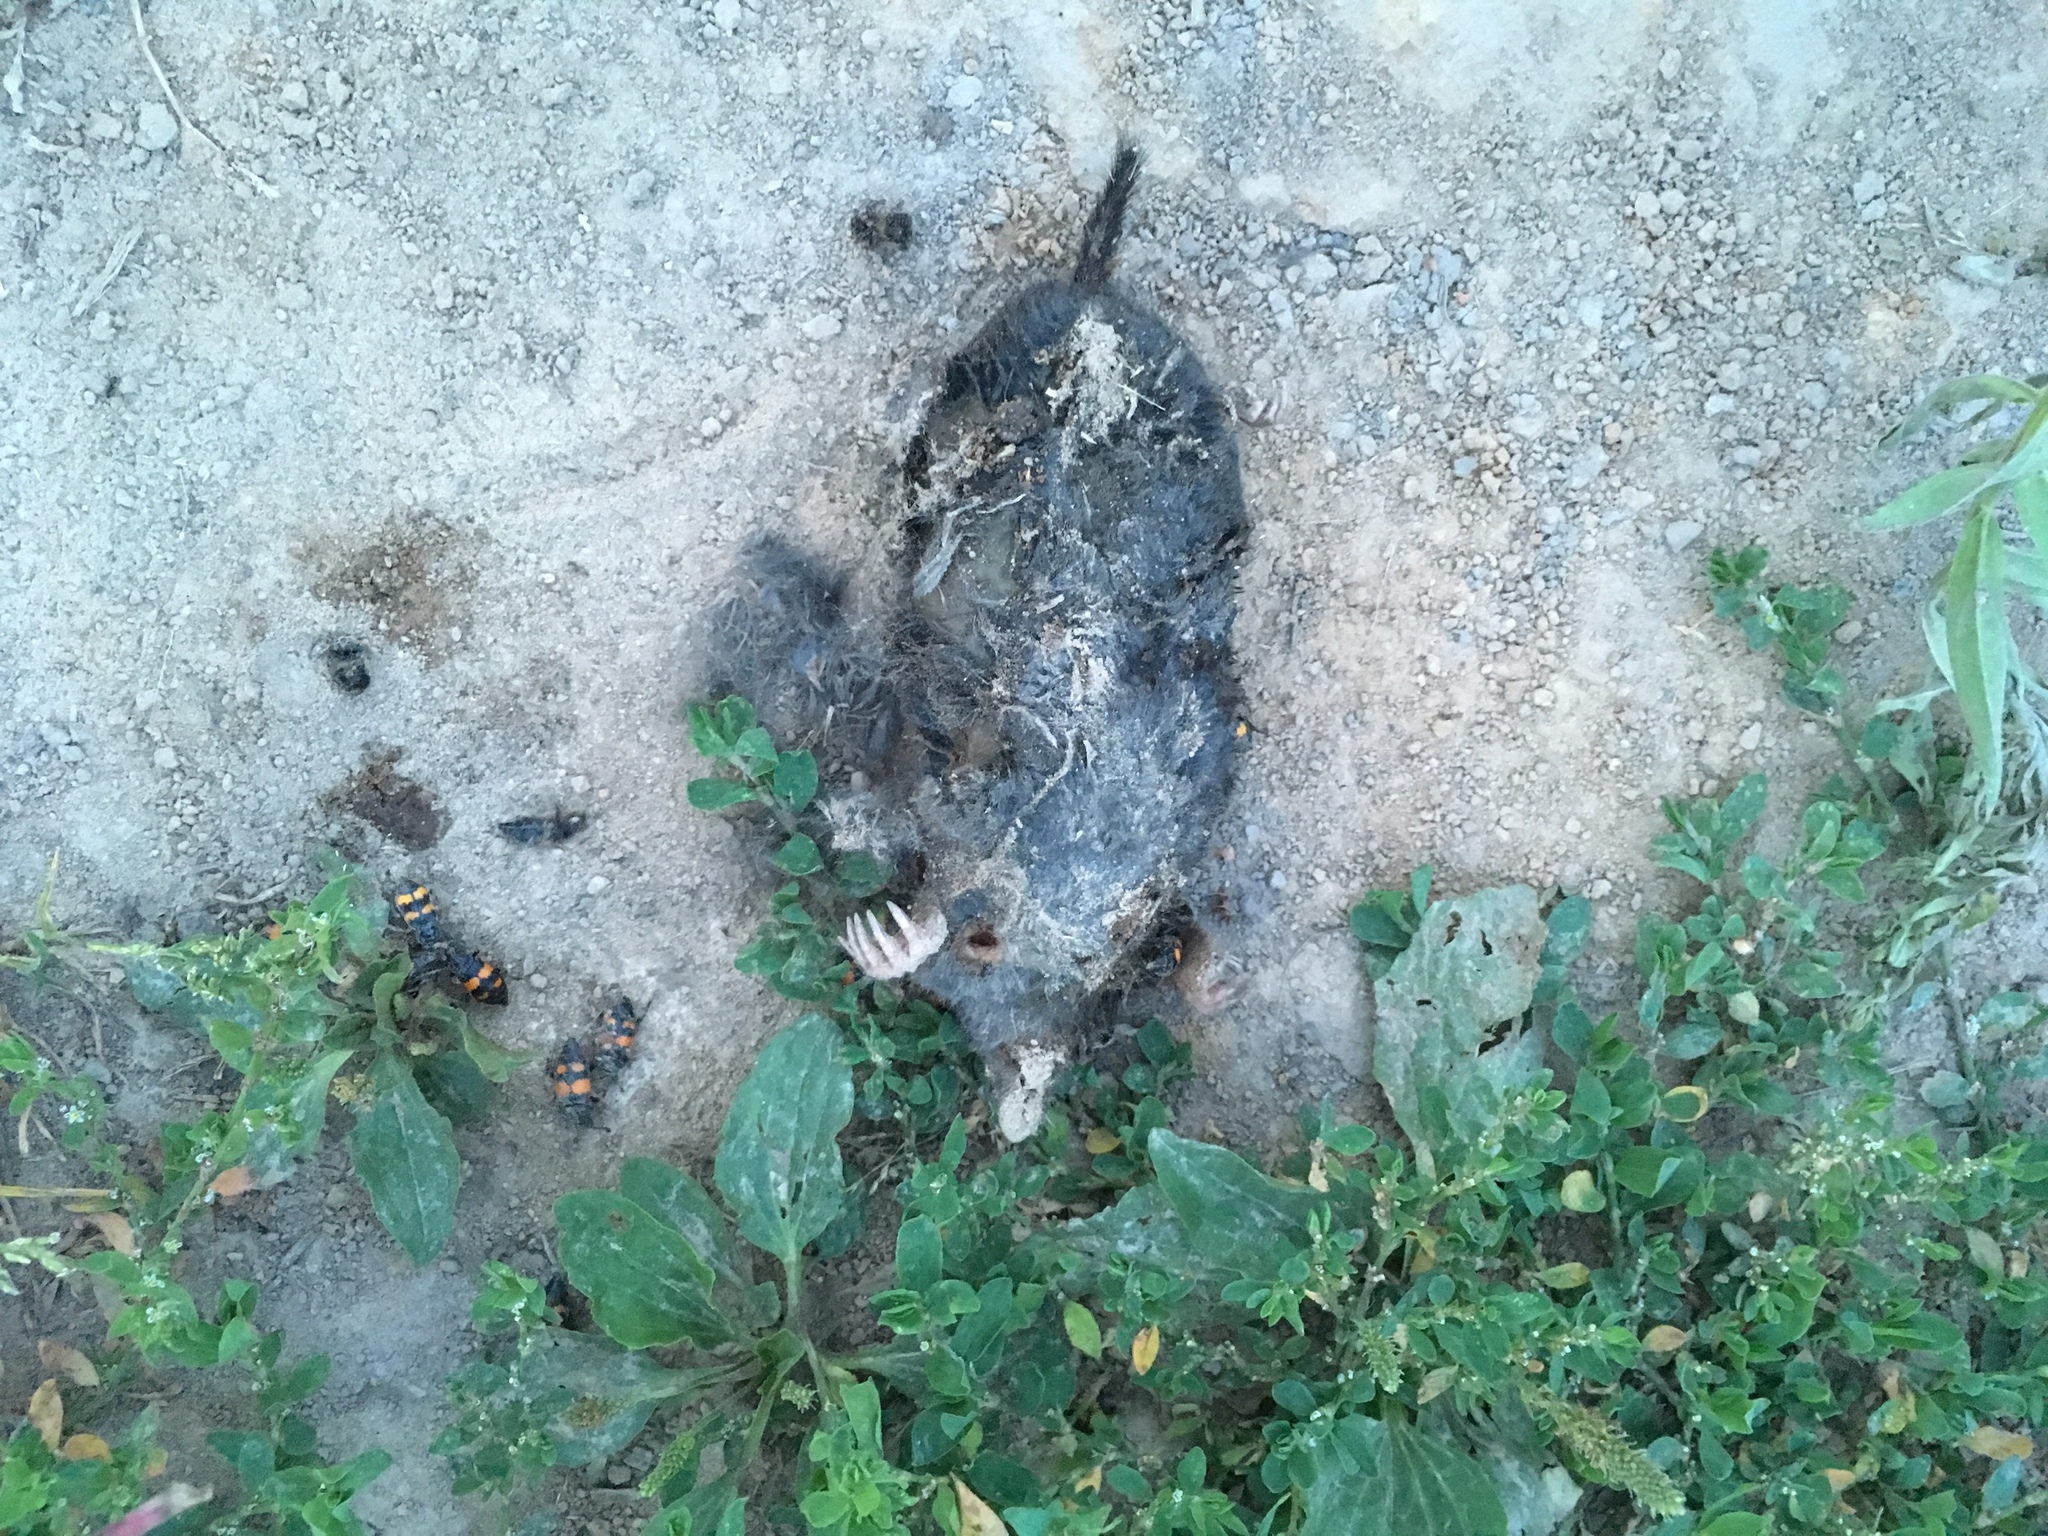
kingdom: Animalia
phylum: Chordata
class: Mammalia
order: Soricomorpha
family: Talpidae
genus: Talpa
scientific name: Talpa europaea
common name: European mole
